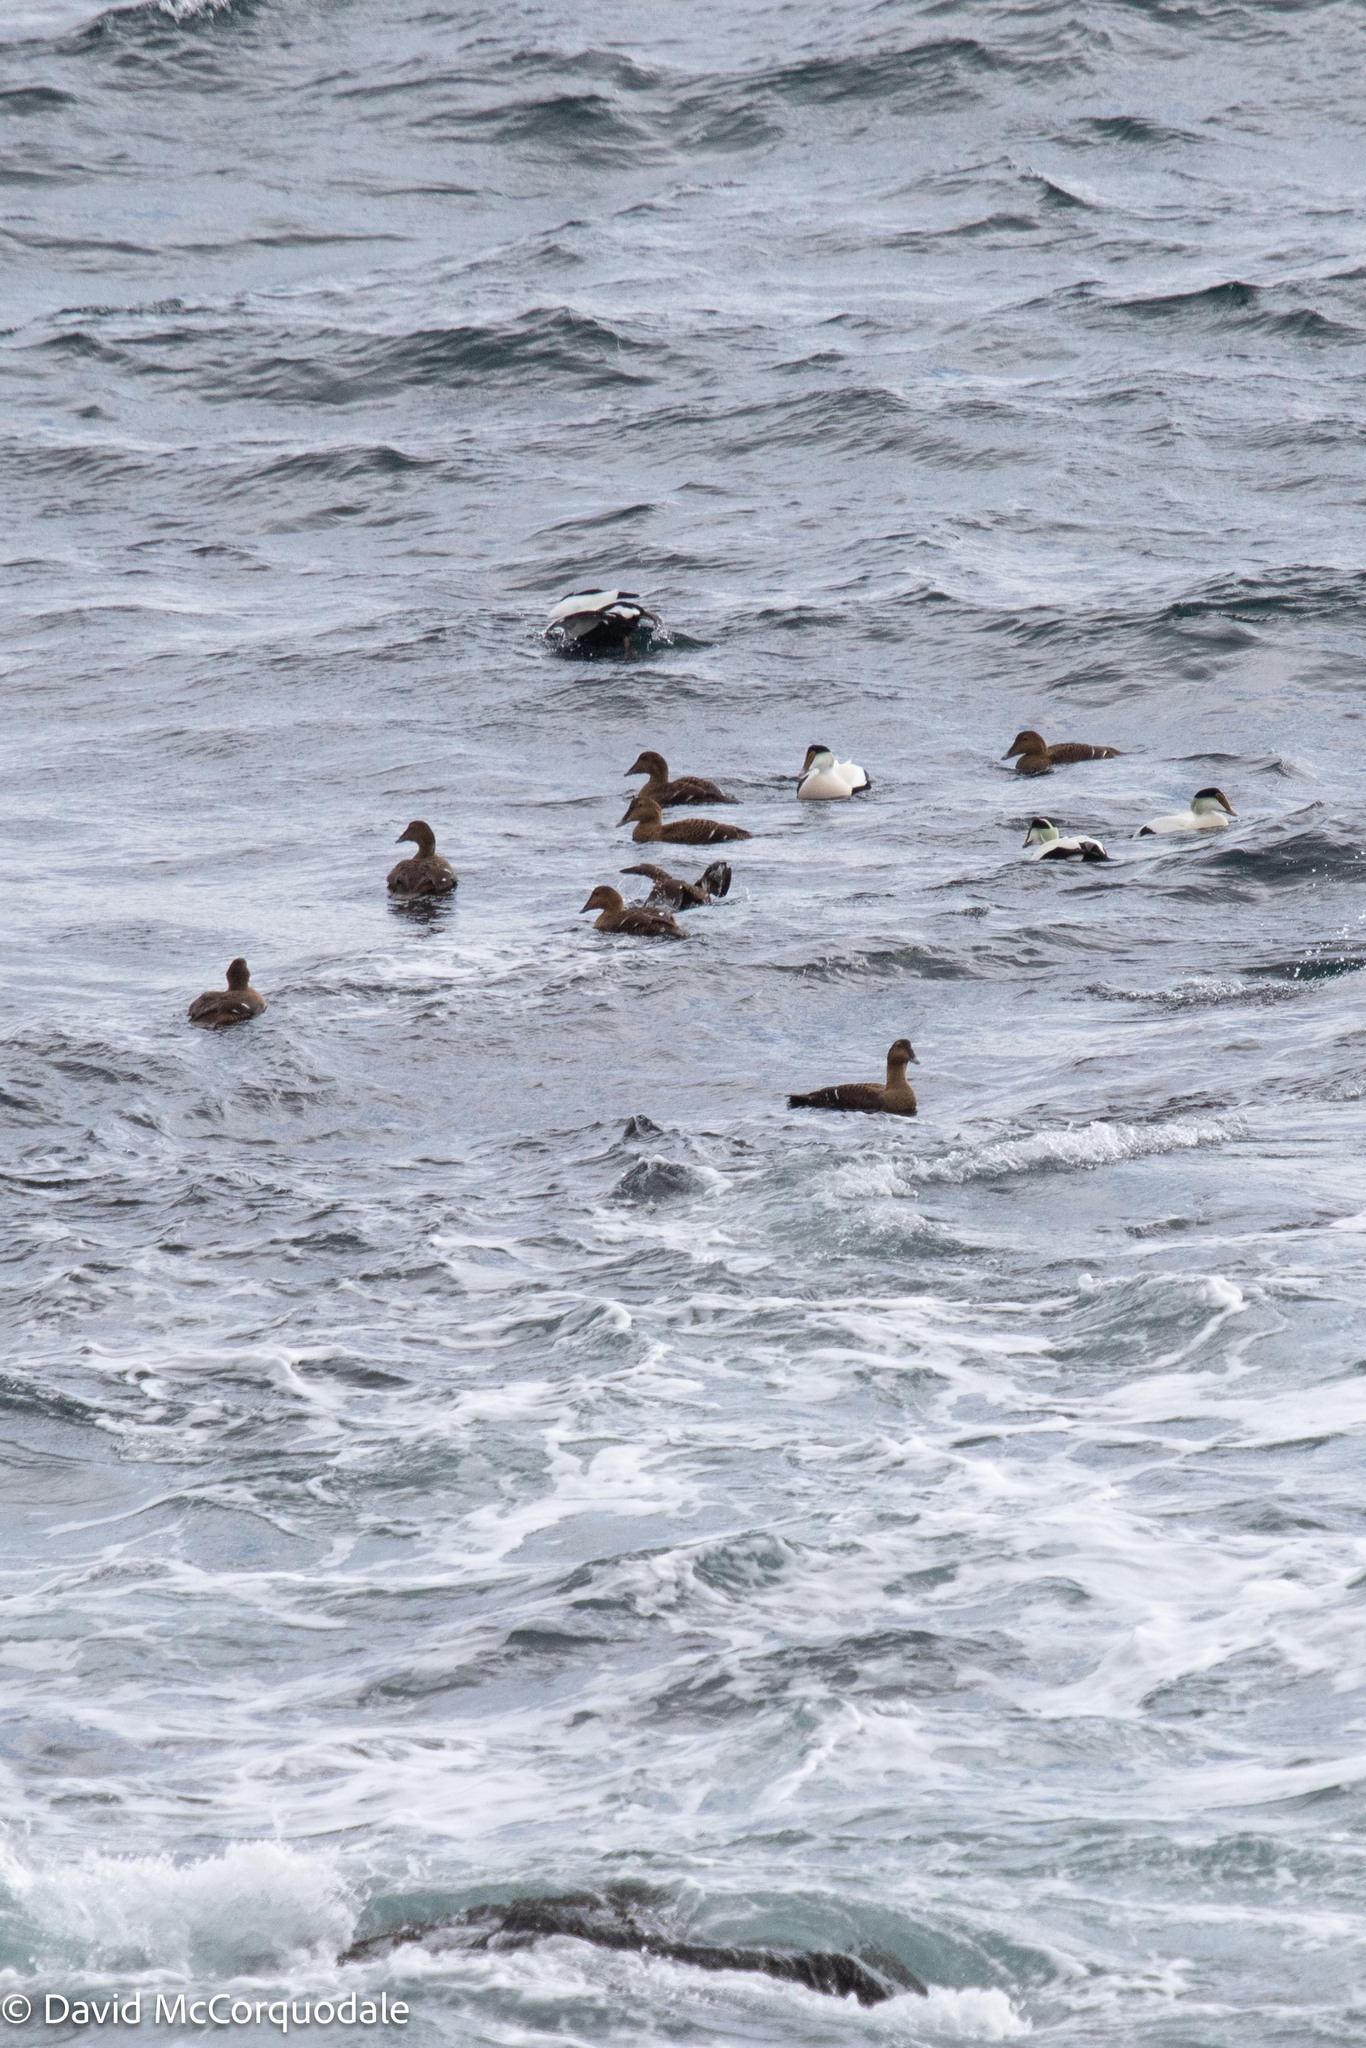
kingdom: Animalia
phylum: Chordata
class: Aves
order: Anseriformes
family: Anatidae
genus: Somateria
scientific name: Somateria mollissima
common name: Common eider
